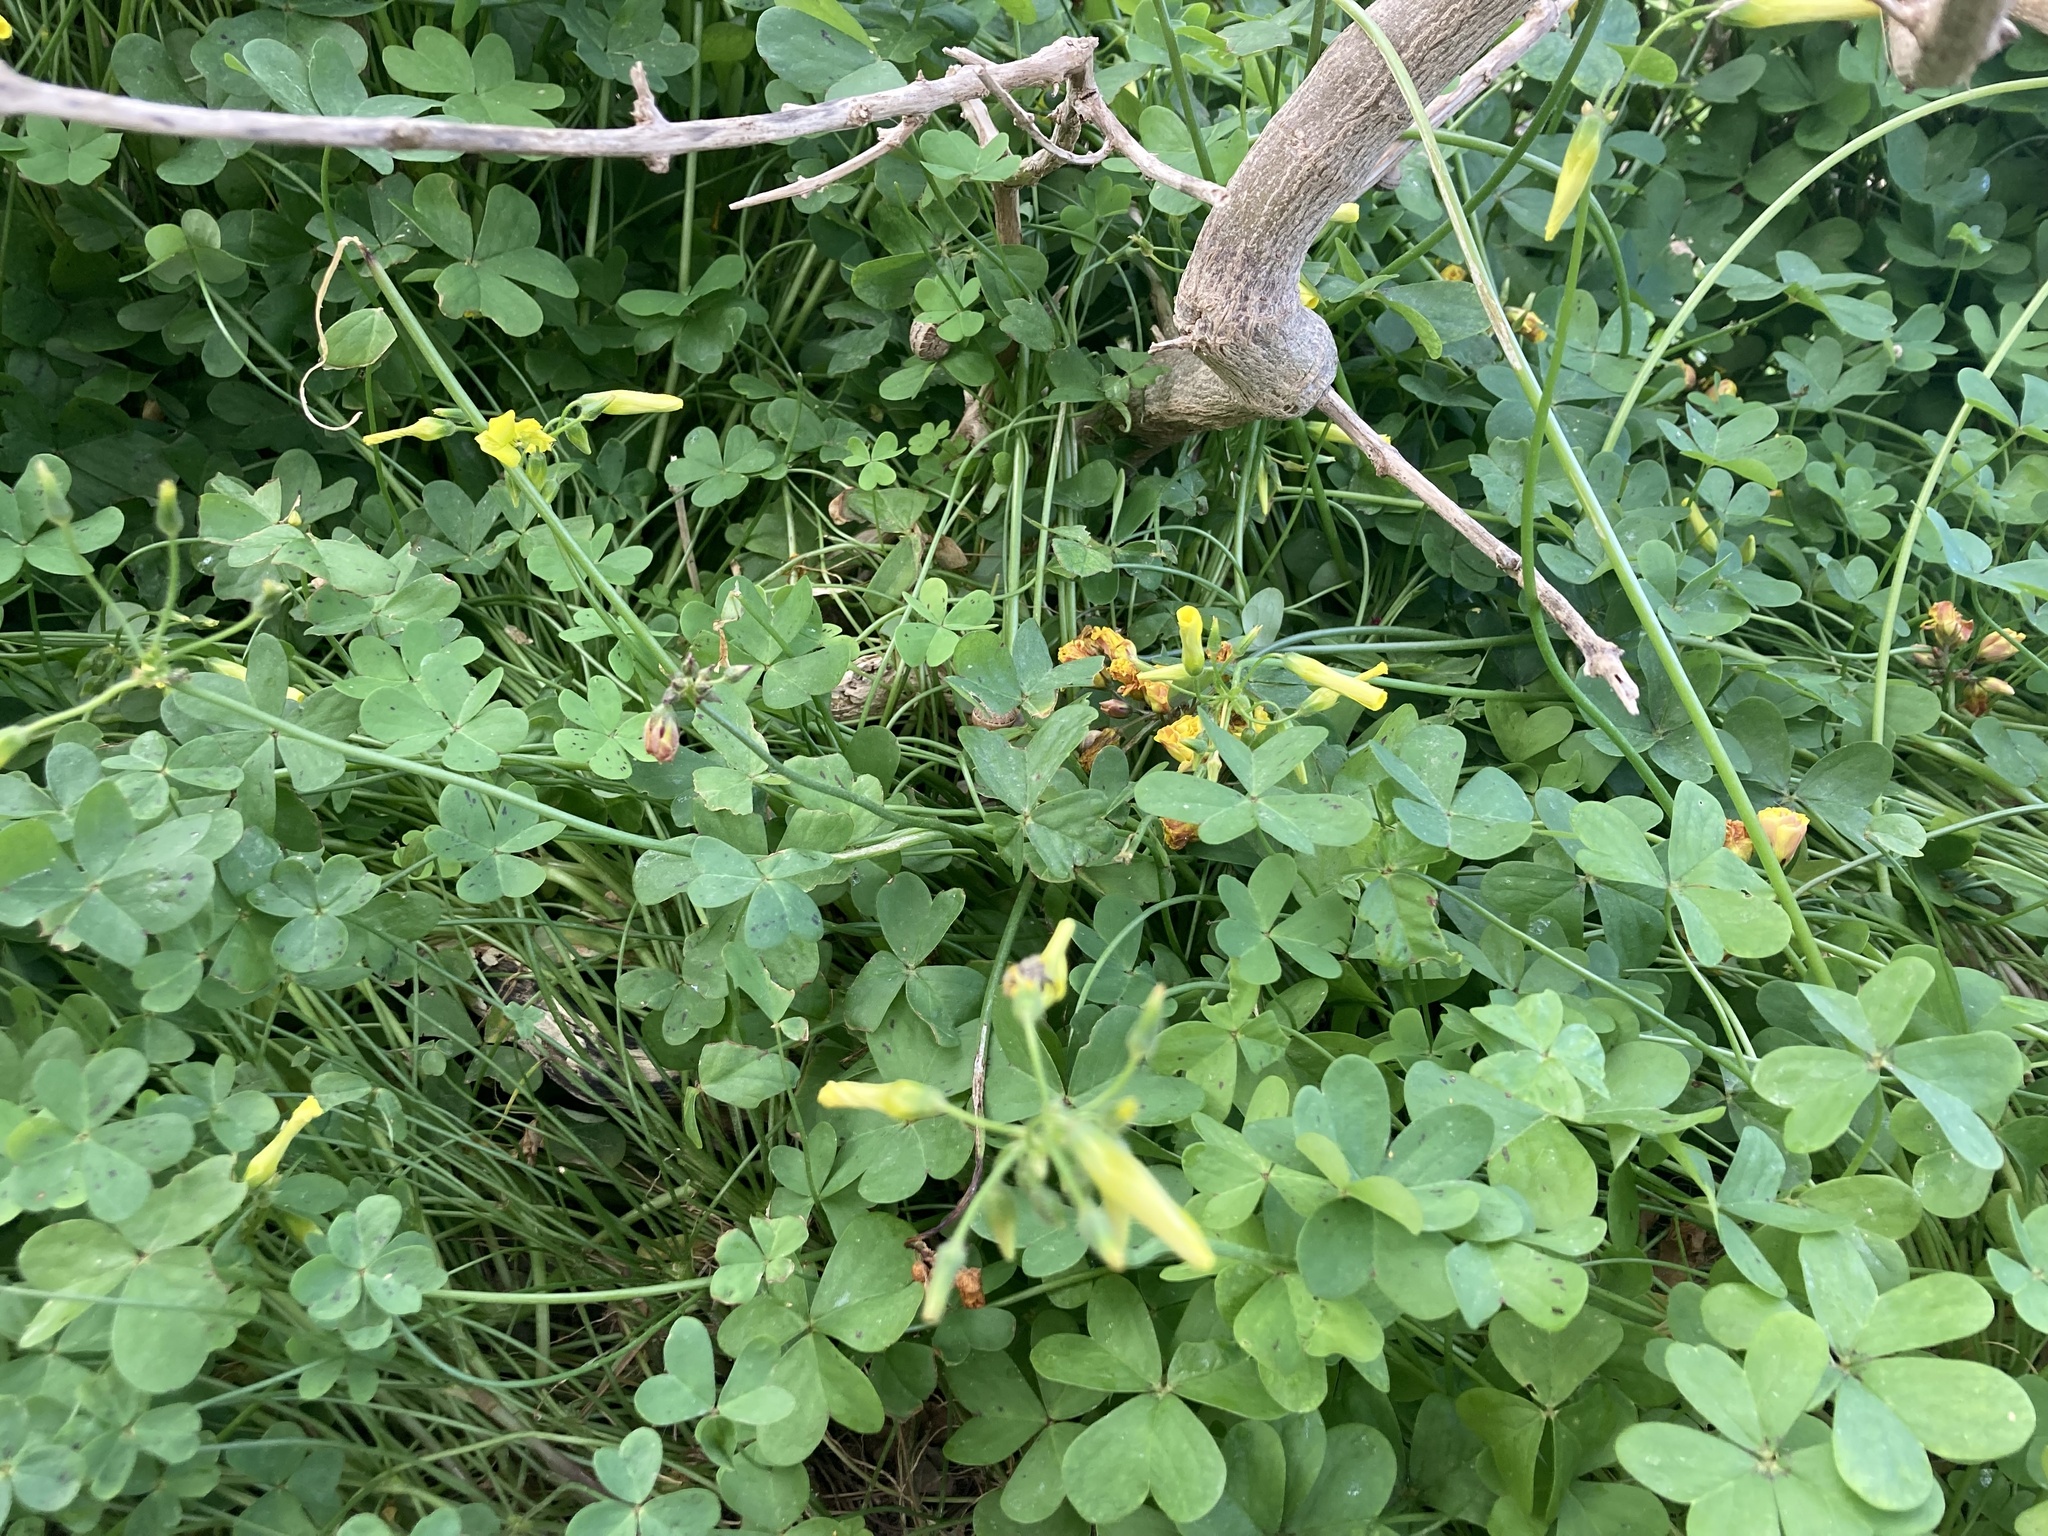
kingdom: Plantae
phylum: Tracheophyta
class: Magnoliopsida
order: Oxalidales
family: Oxalidaceae
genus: Oxalis
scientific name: Oxalis pes-caprae
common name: Bermuda-buttercup
